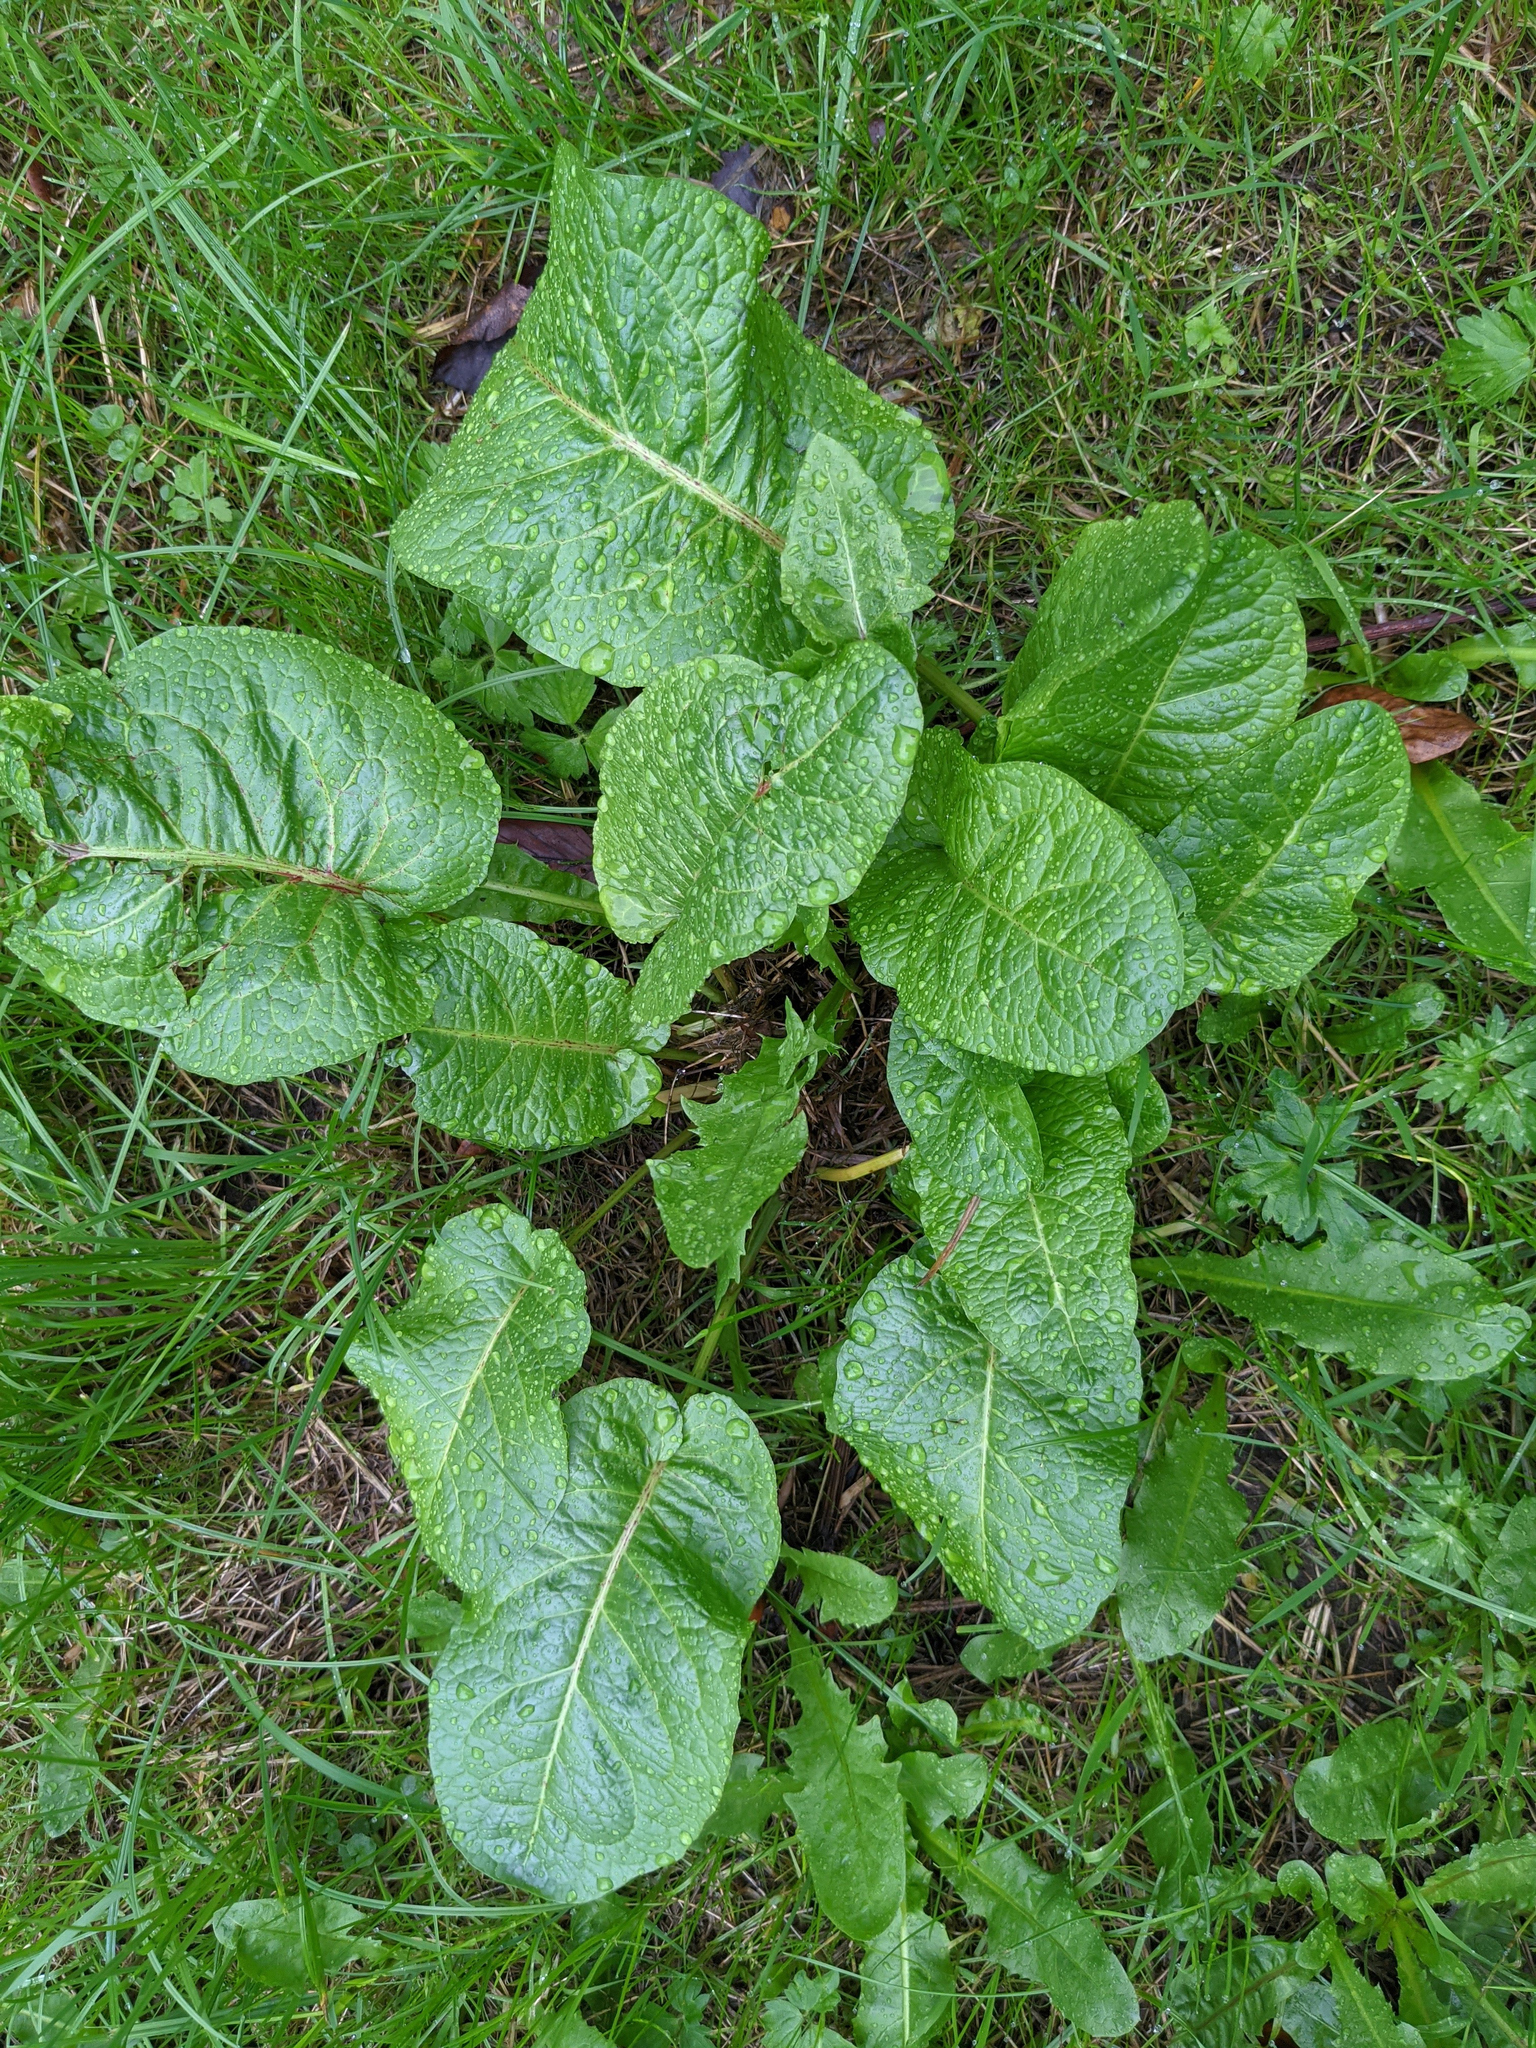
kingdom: Plantae
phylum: Tracheophyta
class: Magnoliopsida
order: Caryophyllales
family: Polygonaceae
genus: Rumex
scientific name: Rumex obtusifolius
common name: Bitter dock
